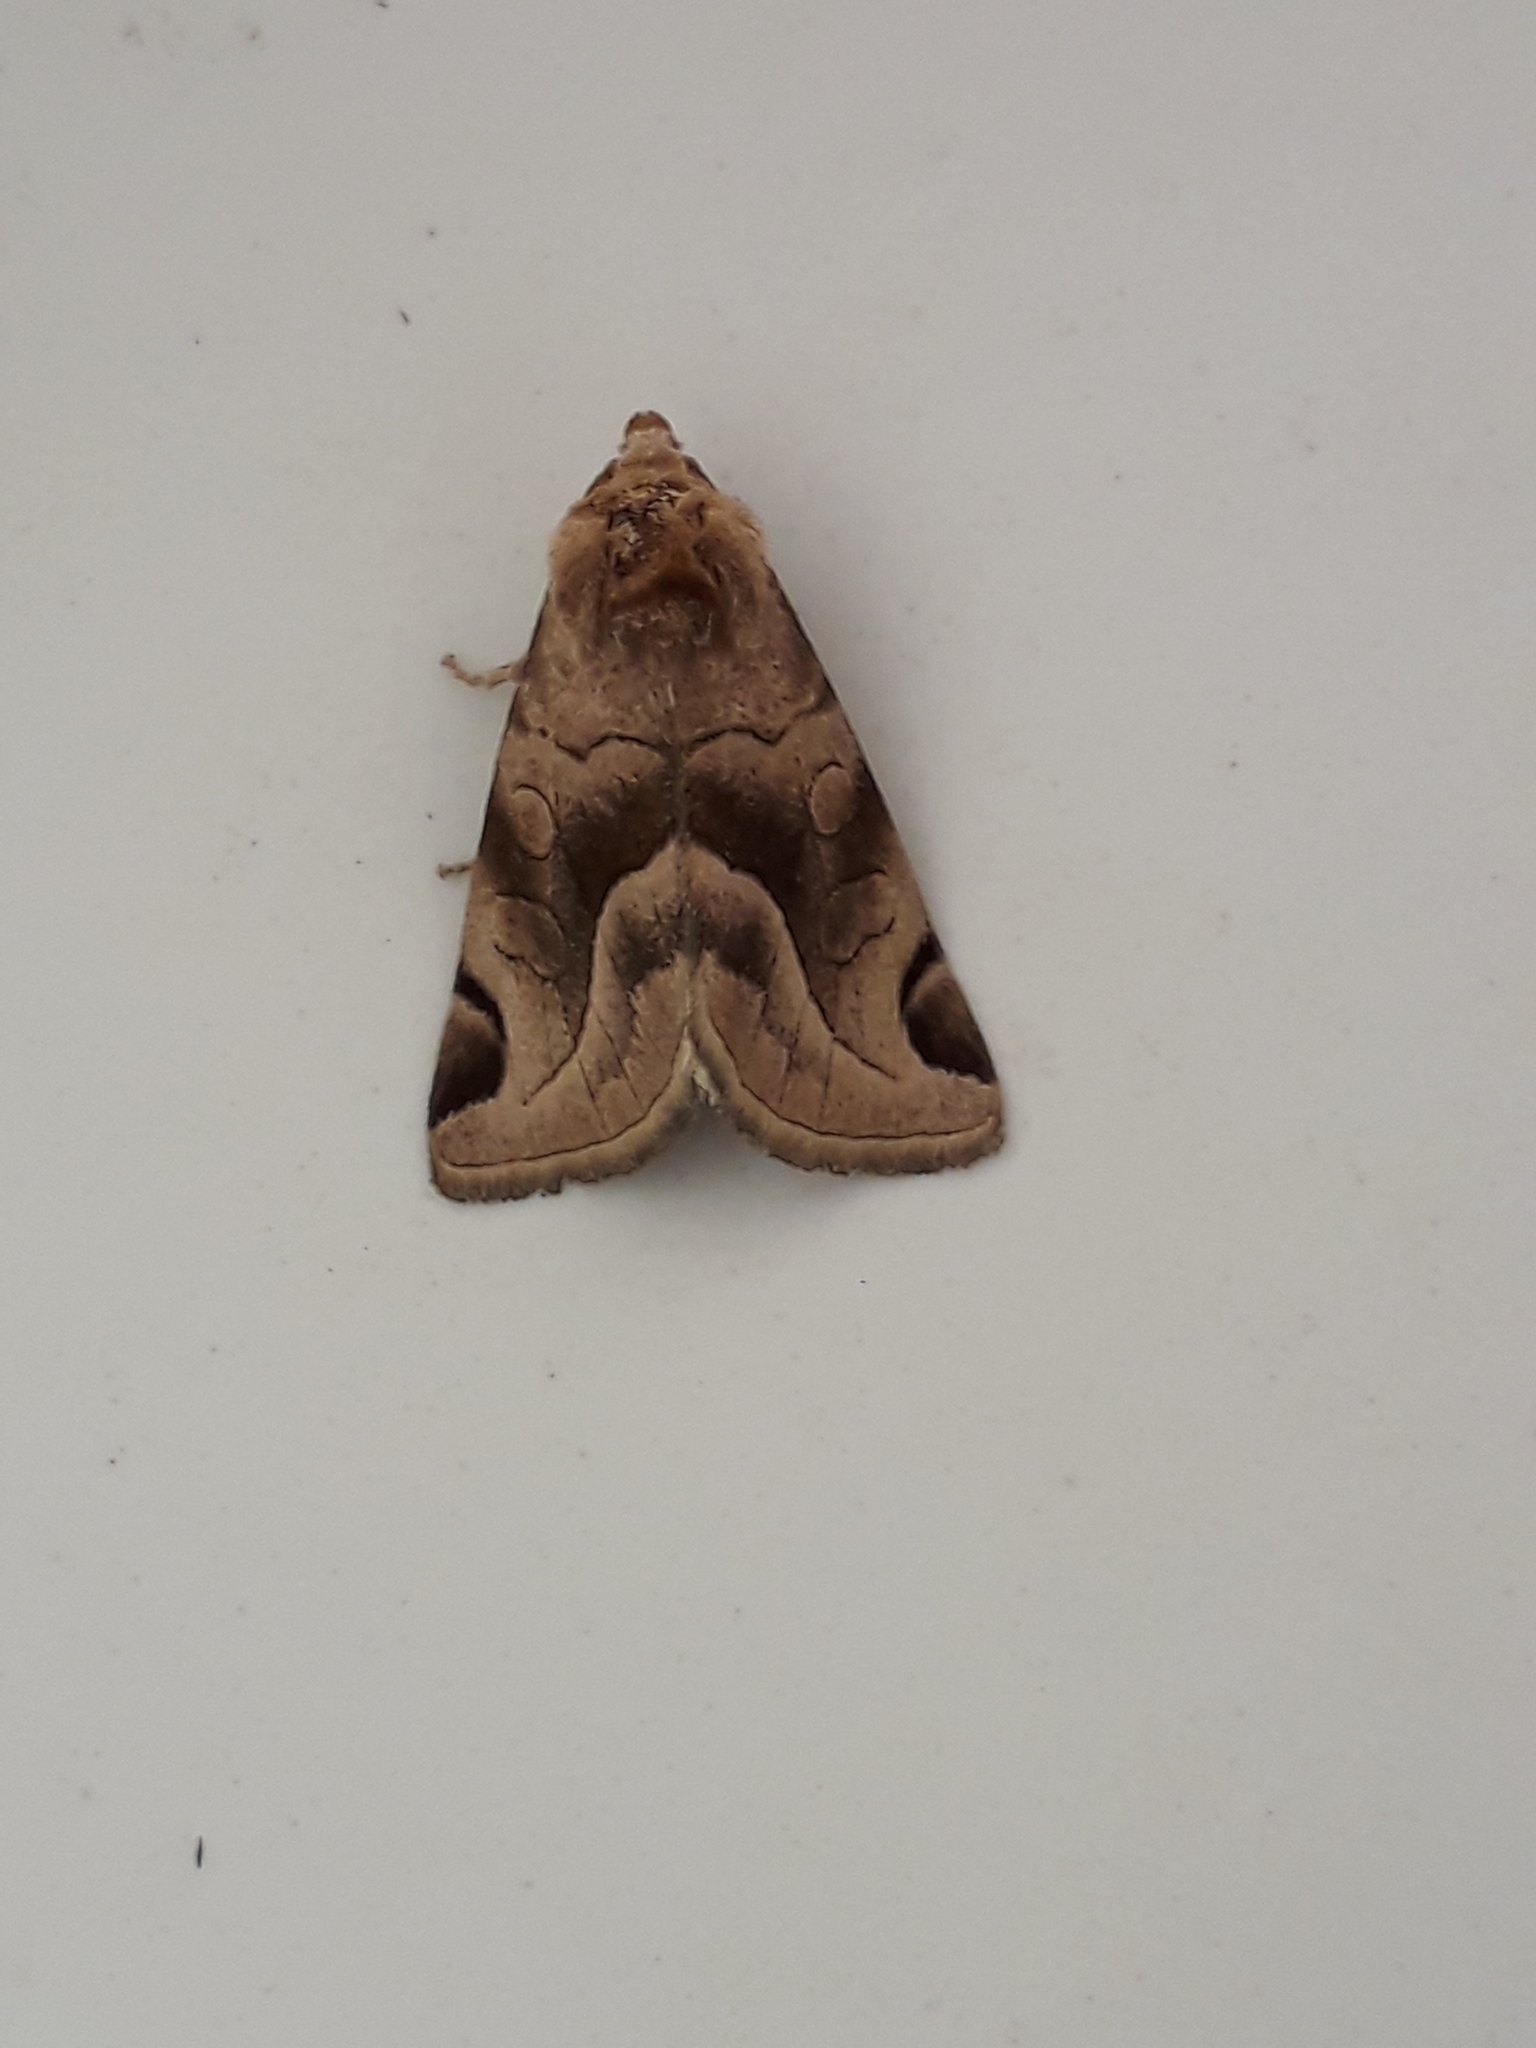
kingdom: Animalia
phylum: Arthropoda
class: Insecta
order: Lepidoptera
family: Noctuidae
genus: Plagiomimicus
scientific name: Plagiomimicus
